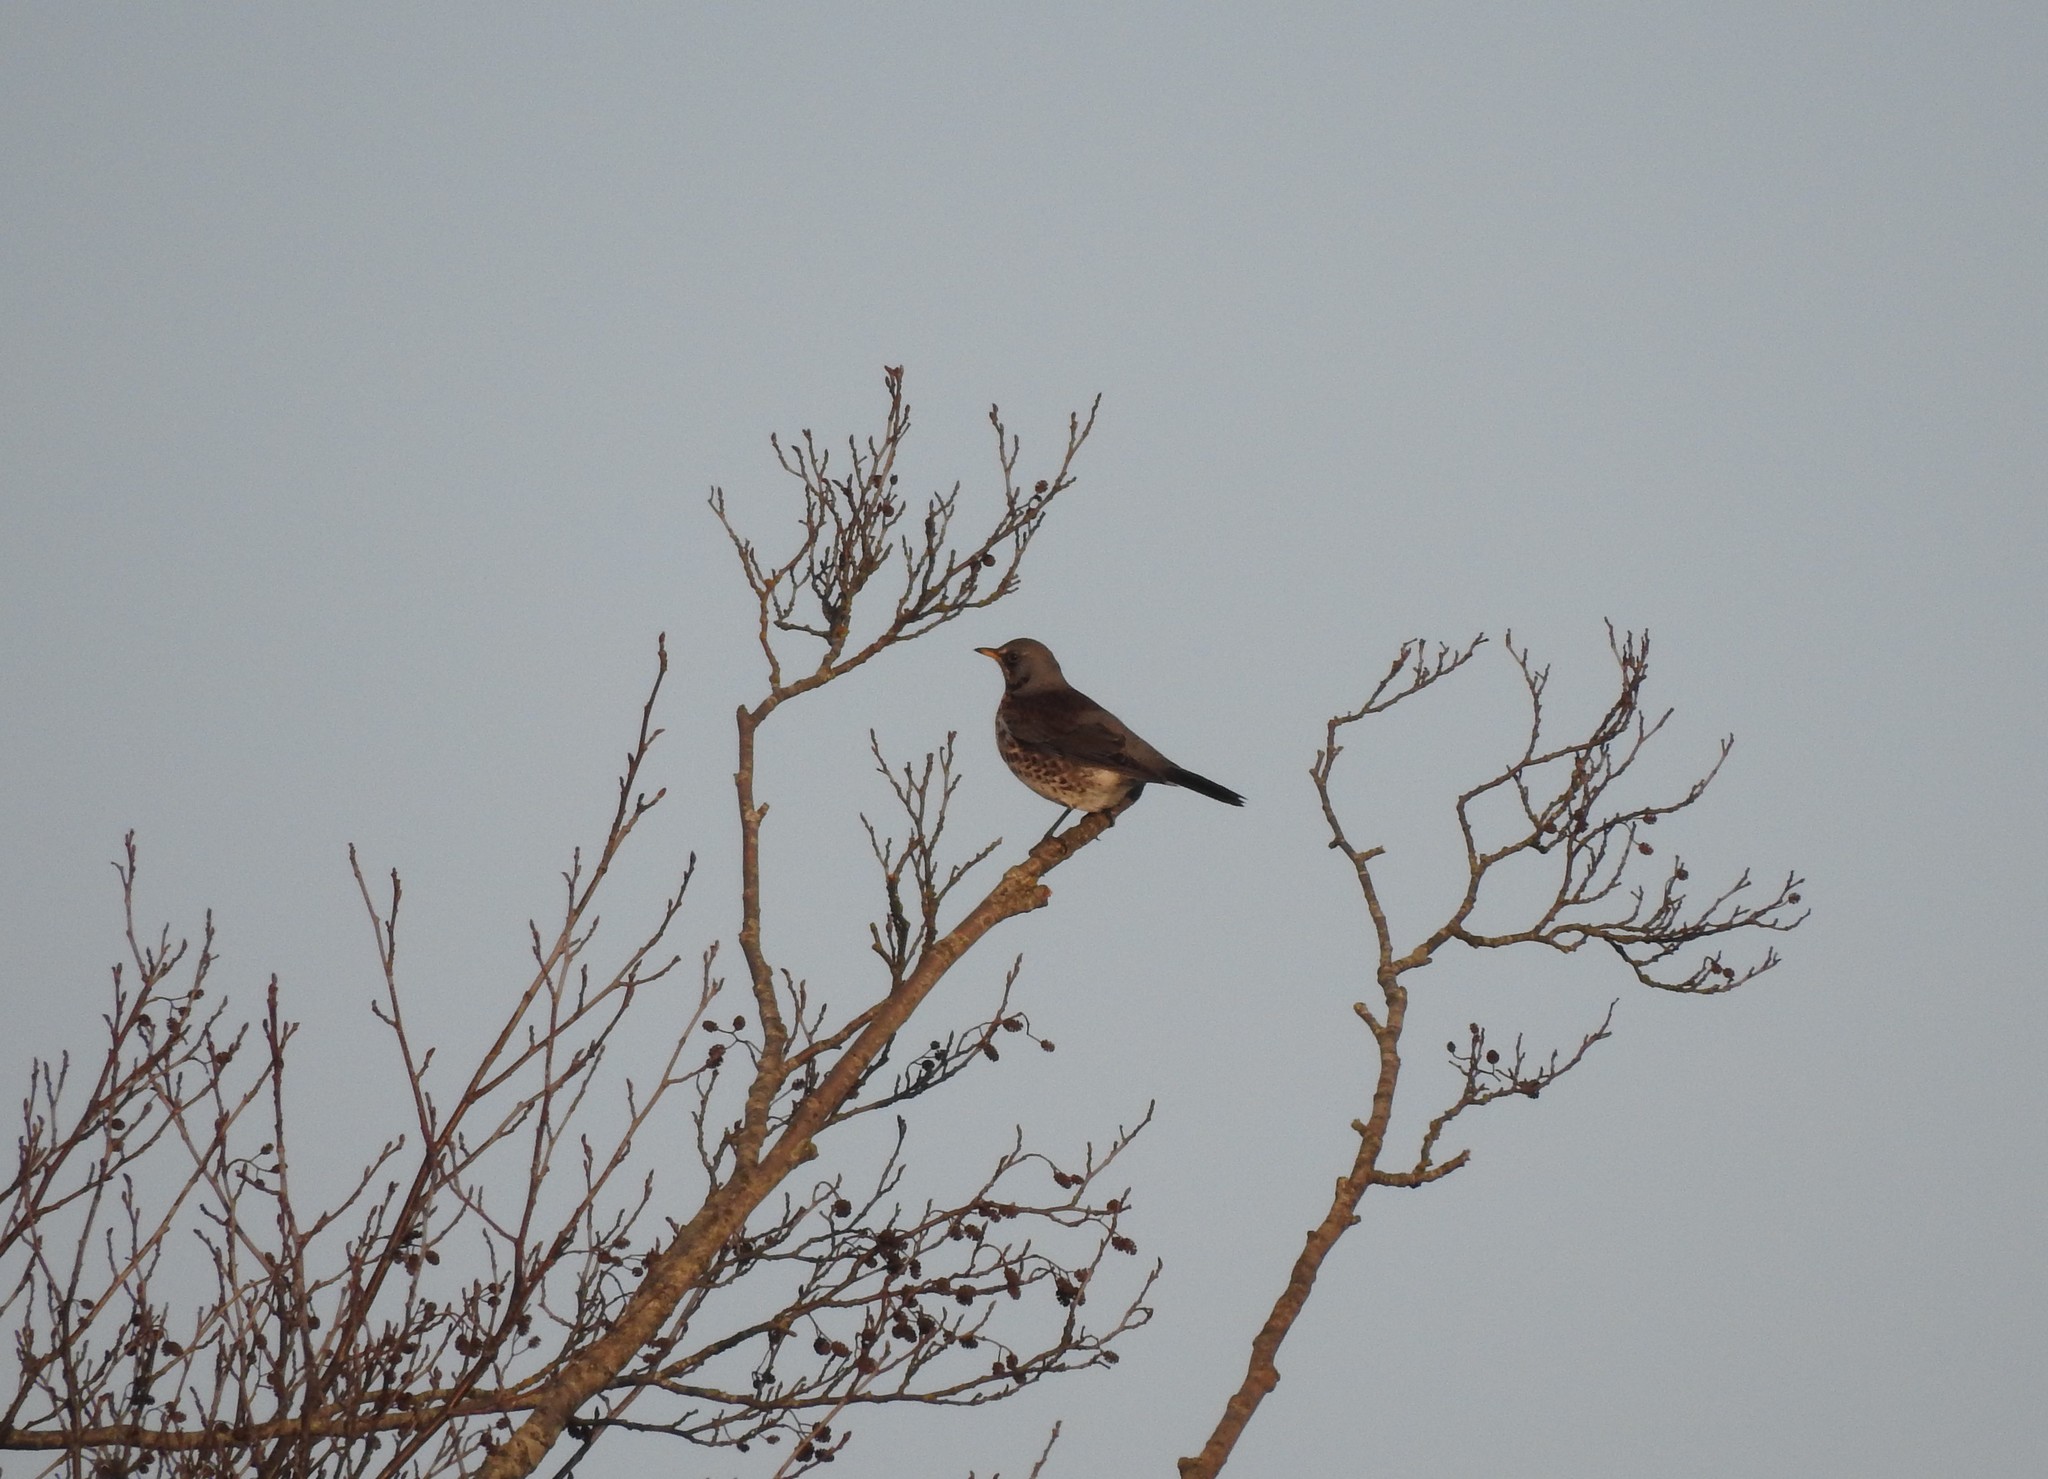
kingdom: Animalia
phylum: Chordata
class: Aves
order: Passeriformes
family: Turdidae
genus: Turdus
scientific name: Turdus pilaris
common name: Fieldfare
